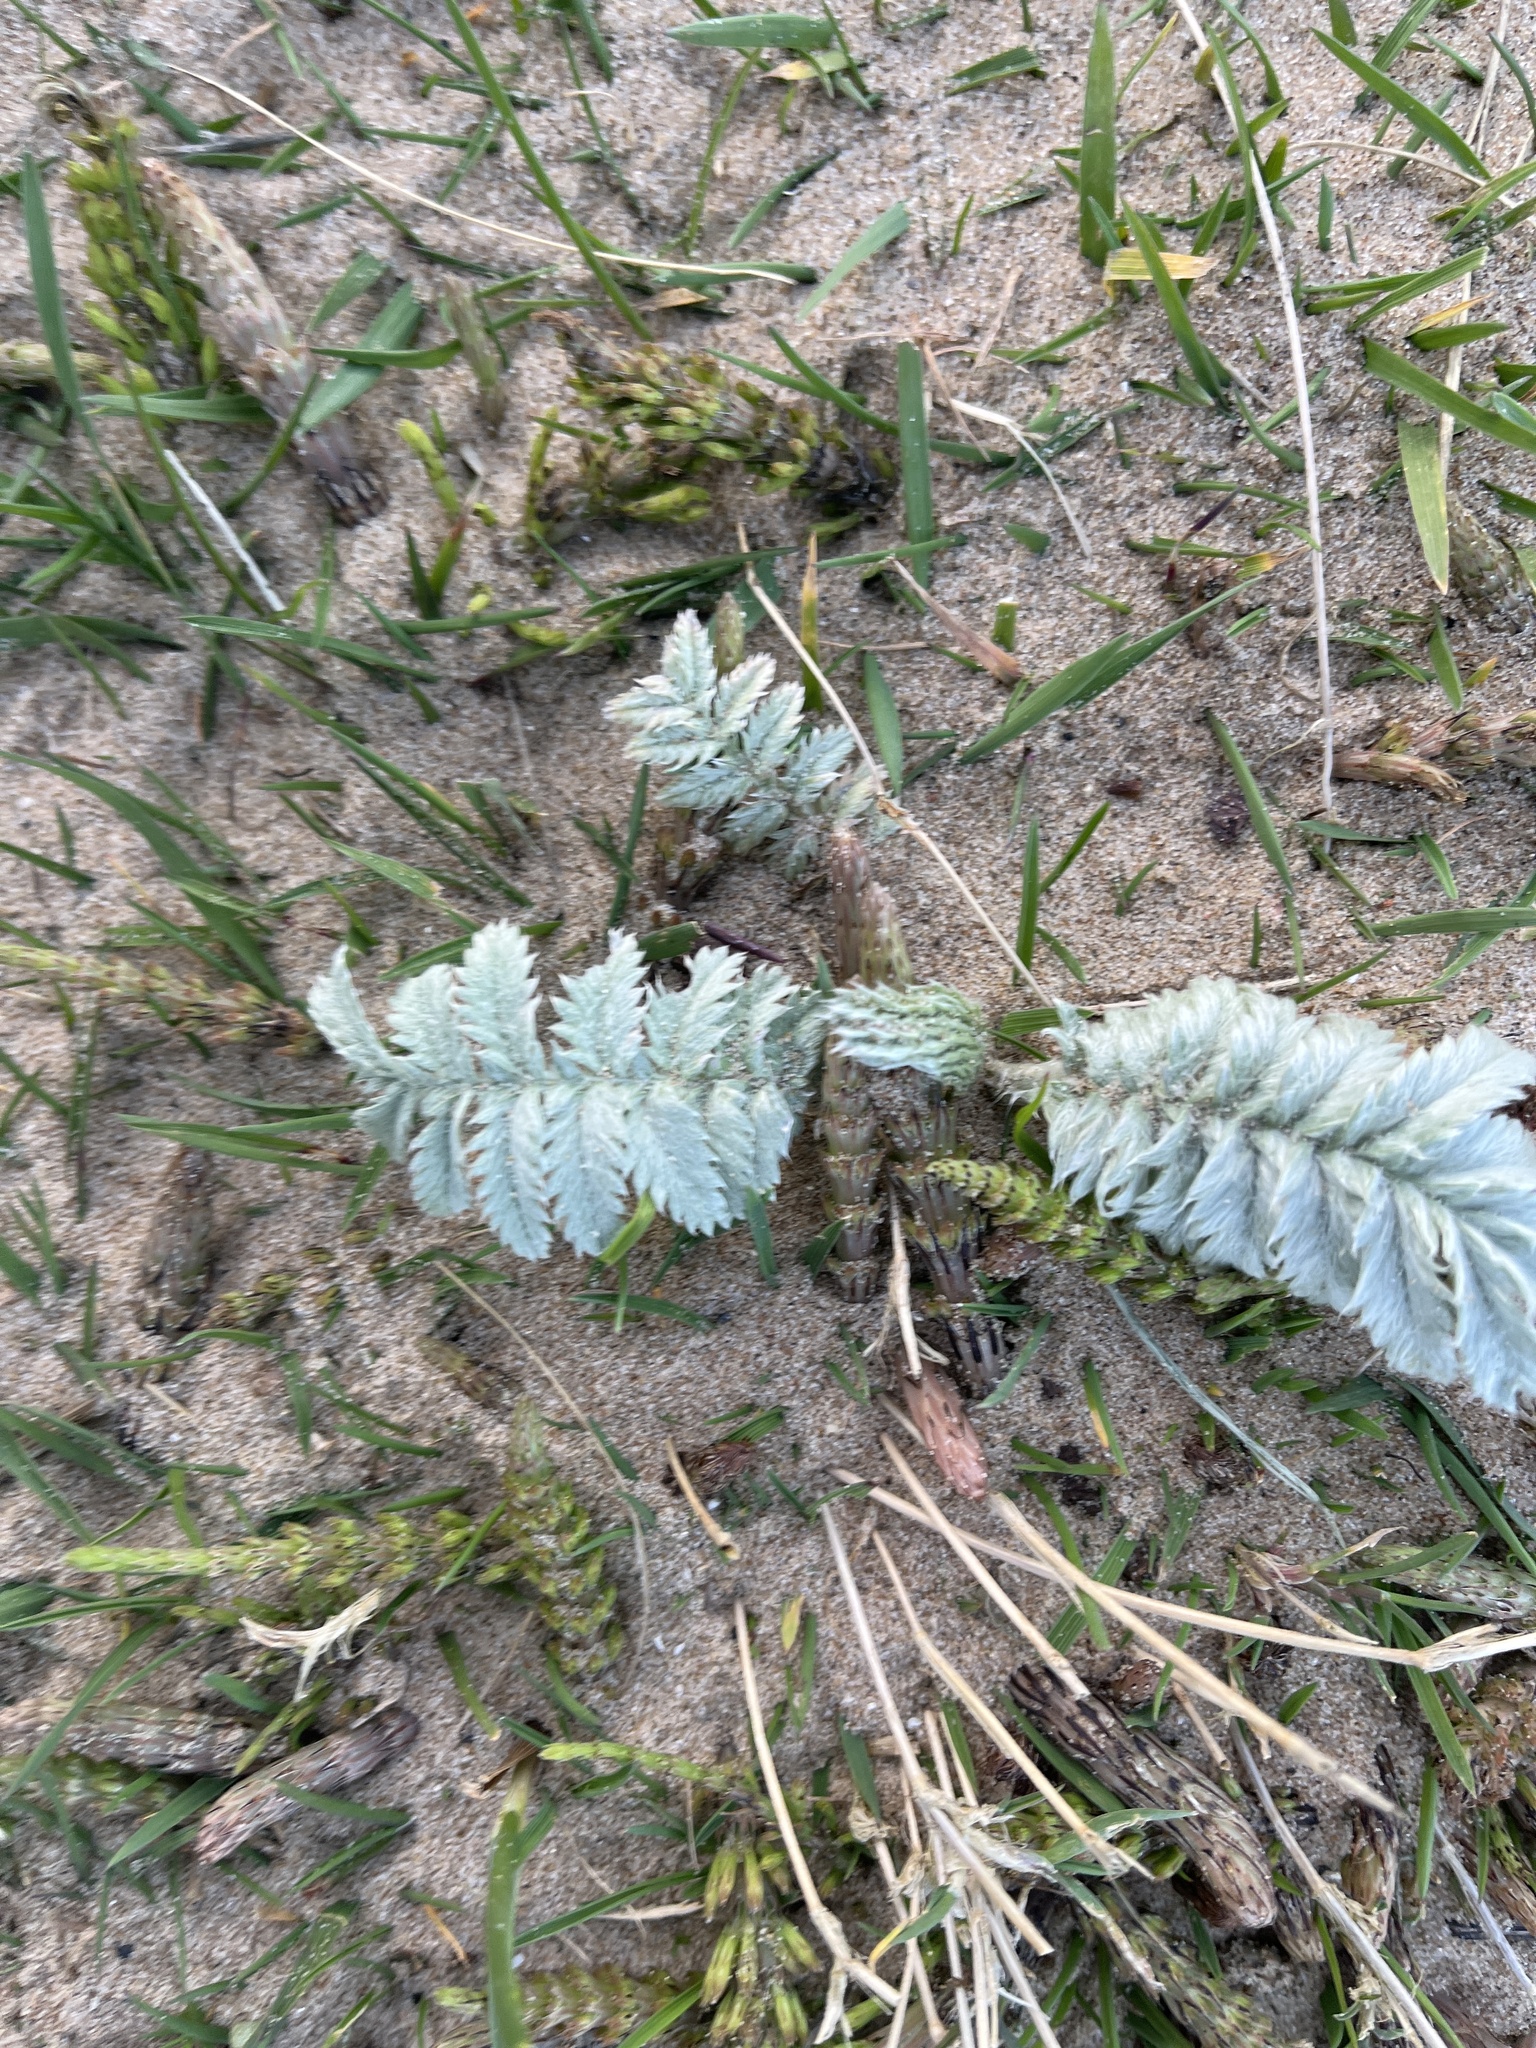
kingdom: Plantae
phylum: Tracheophyta
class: Magnoliopsida
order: Rosales
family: Rosaceae
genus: Argentina
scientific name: Argentina anserina
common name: Common silverweed
